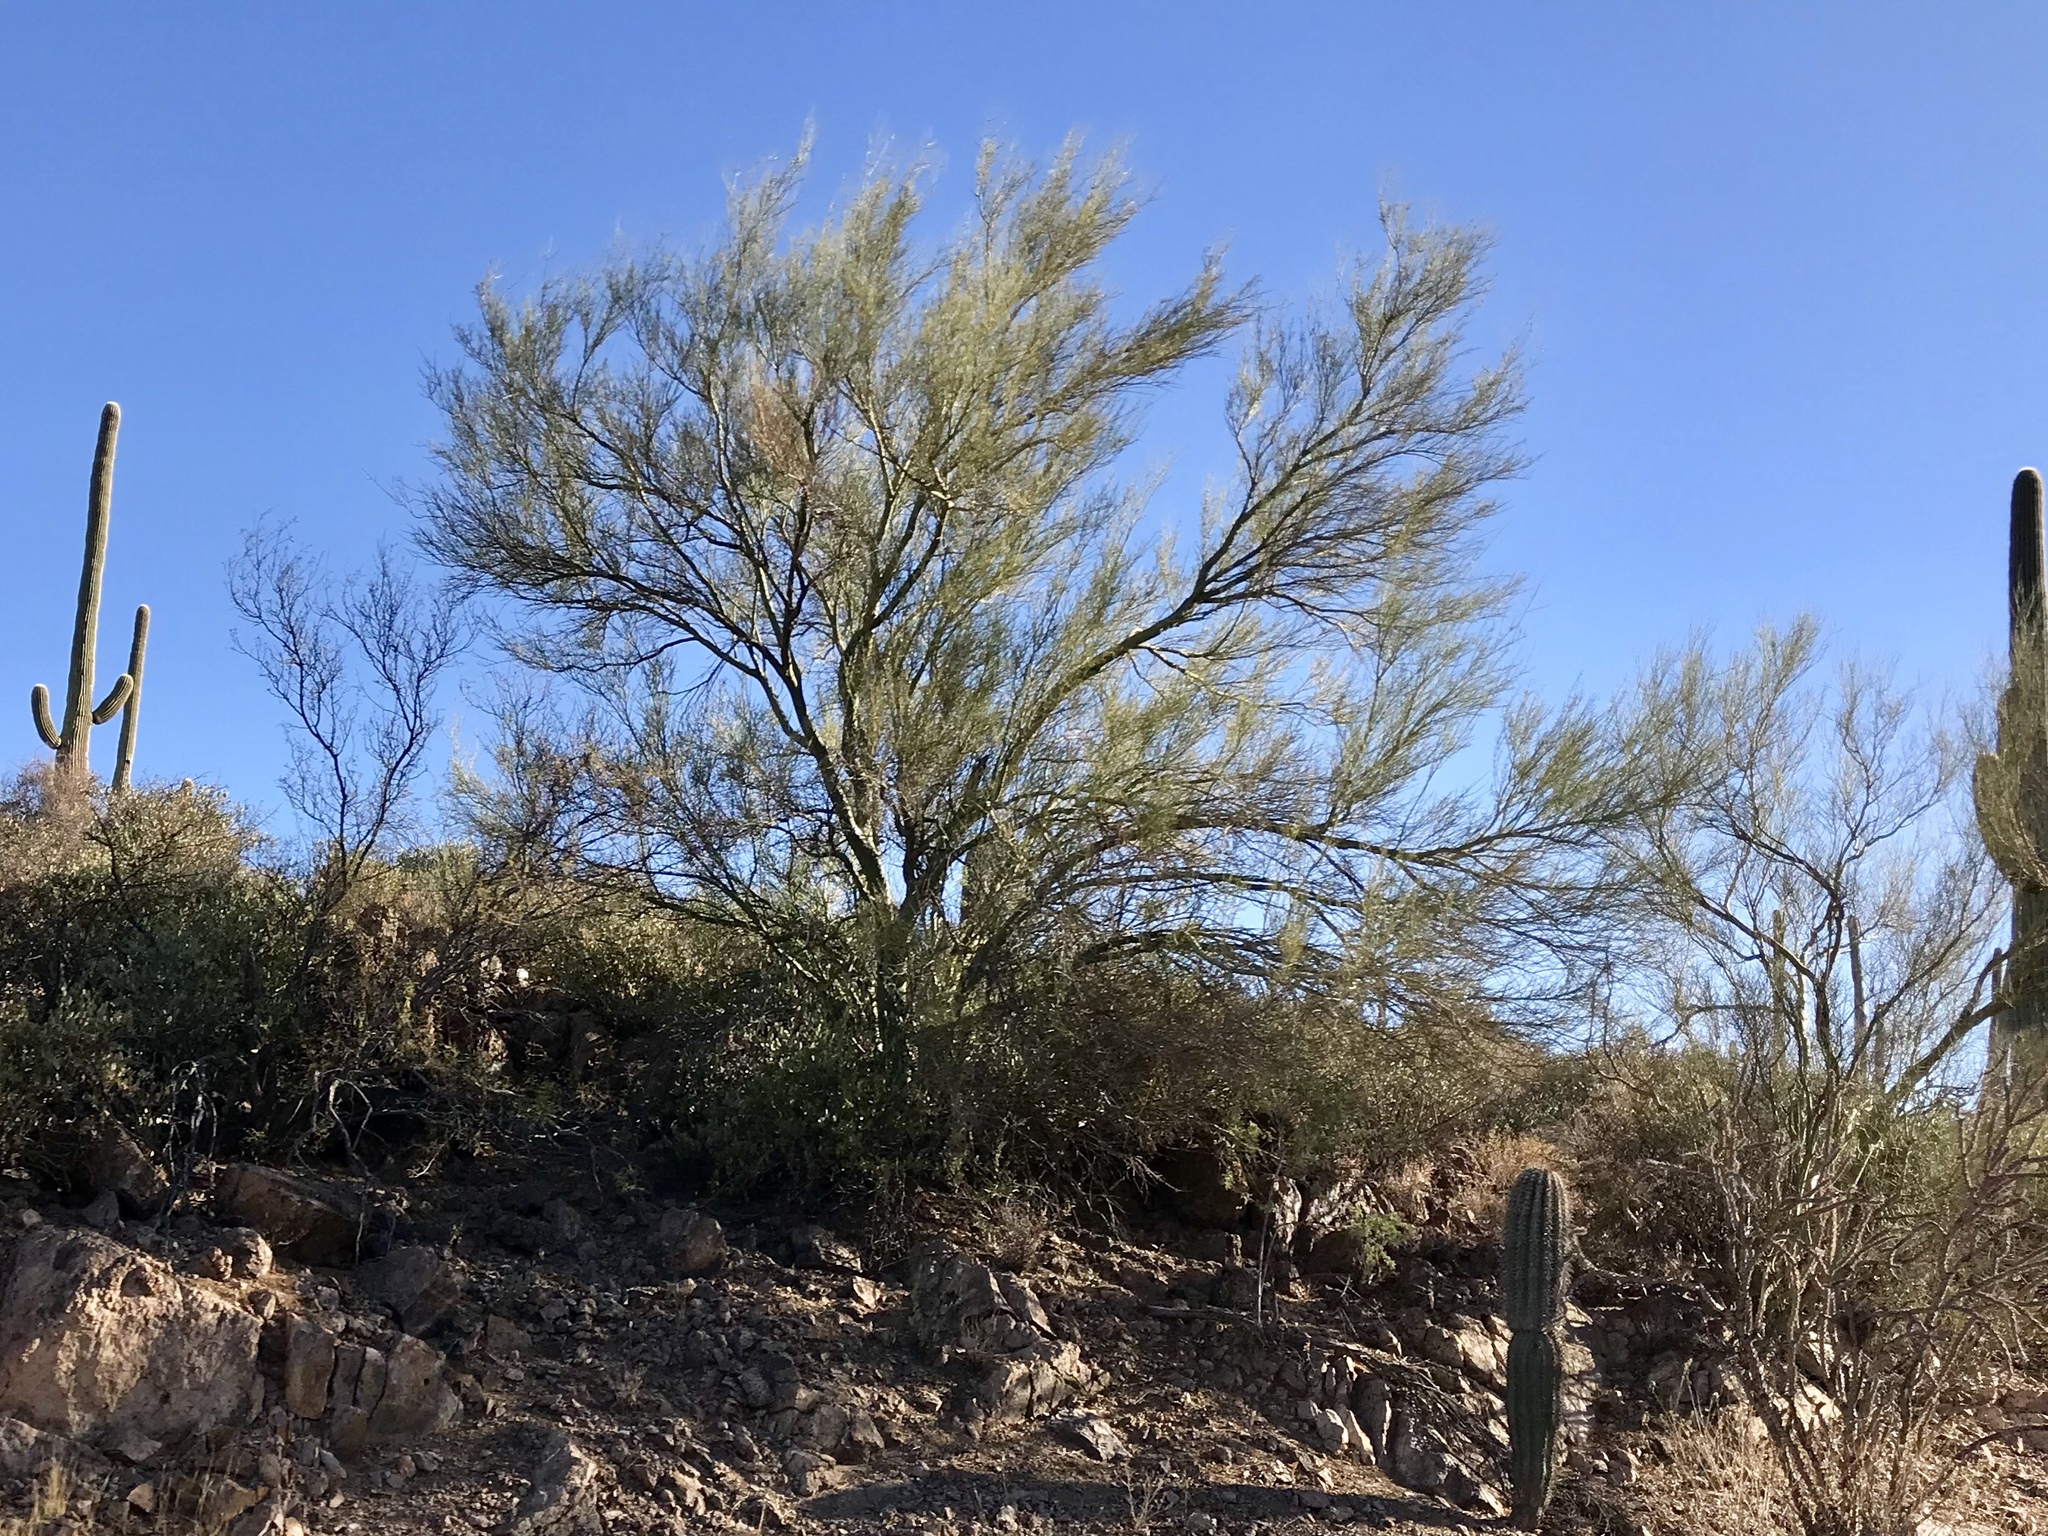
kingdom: Plantae
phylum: Tracheophyta
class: Magnoliopsida
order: Fabales
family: Fabaceae
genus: Parkinsonia
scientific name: Parkinsonia microphylla
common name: Yellow paloverde
